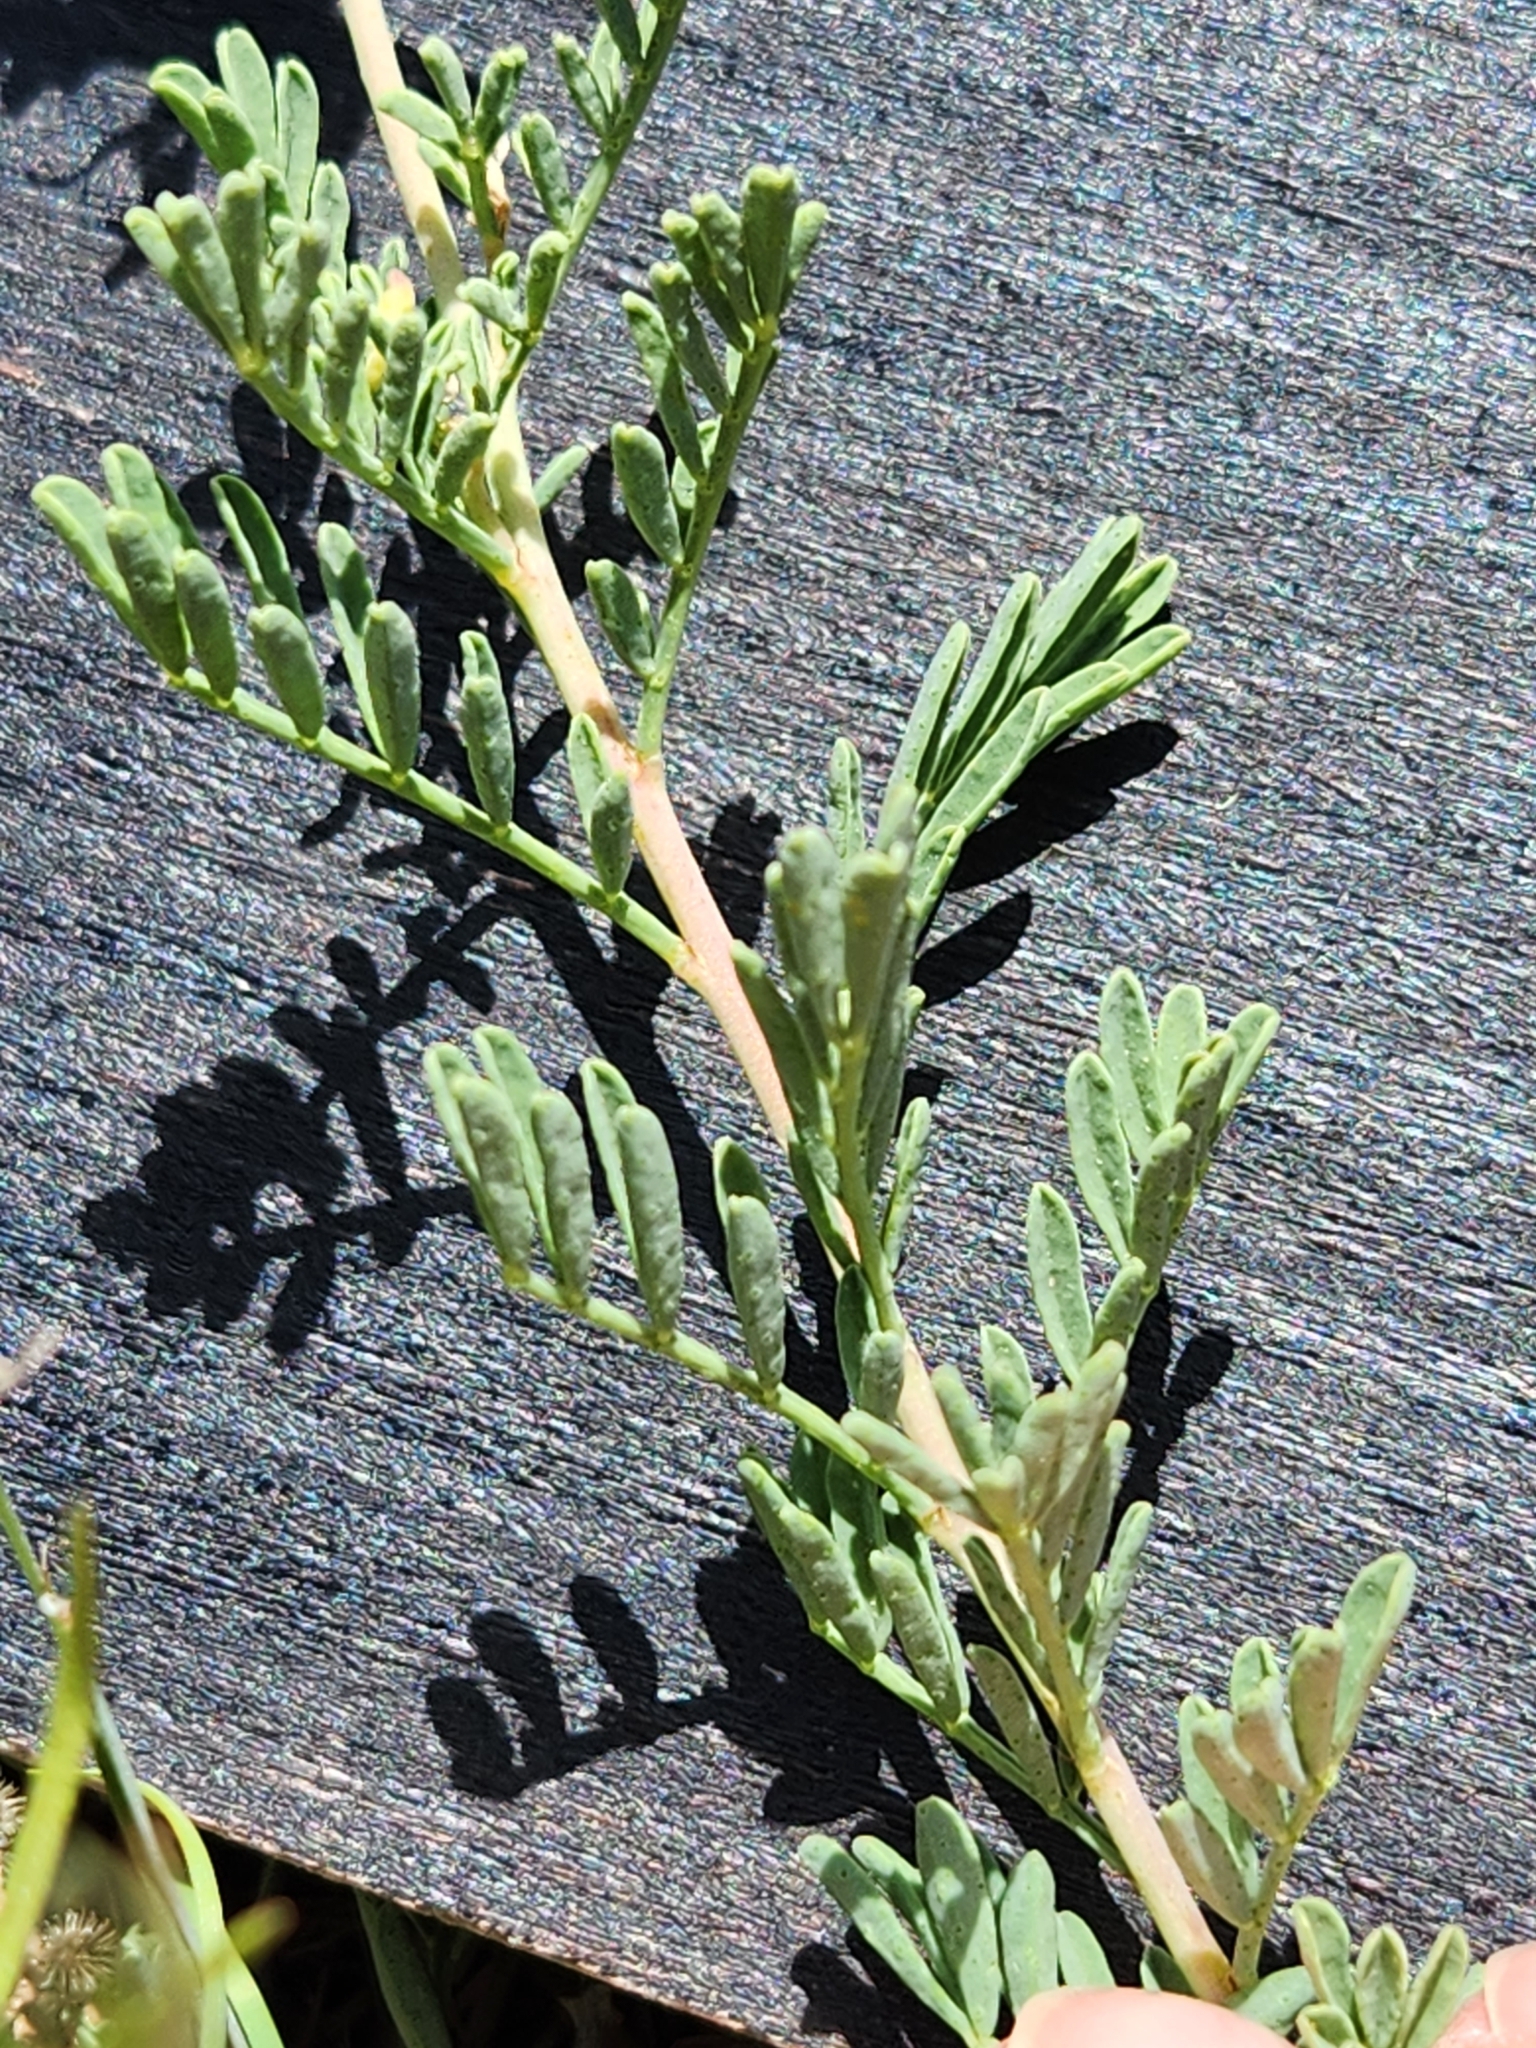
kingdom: Plantae
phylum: Tracheophyta
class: Magnoliopsida
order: Fabales
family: Fabaceae
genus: Dalea
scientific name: Dalea lasiathera
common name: Purple prairie-clover
